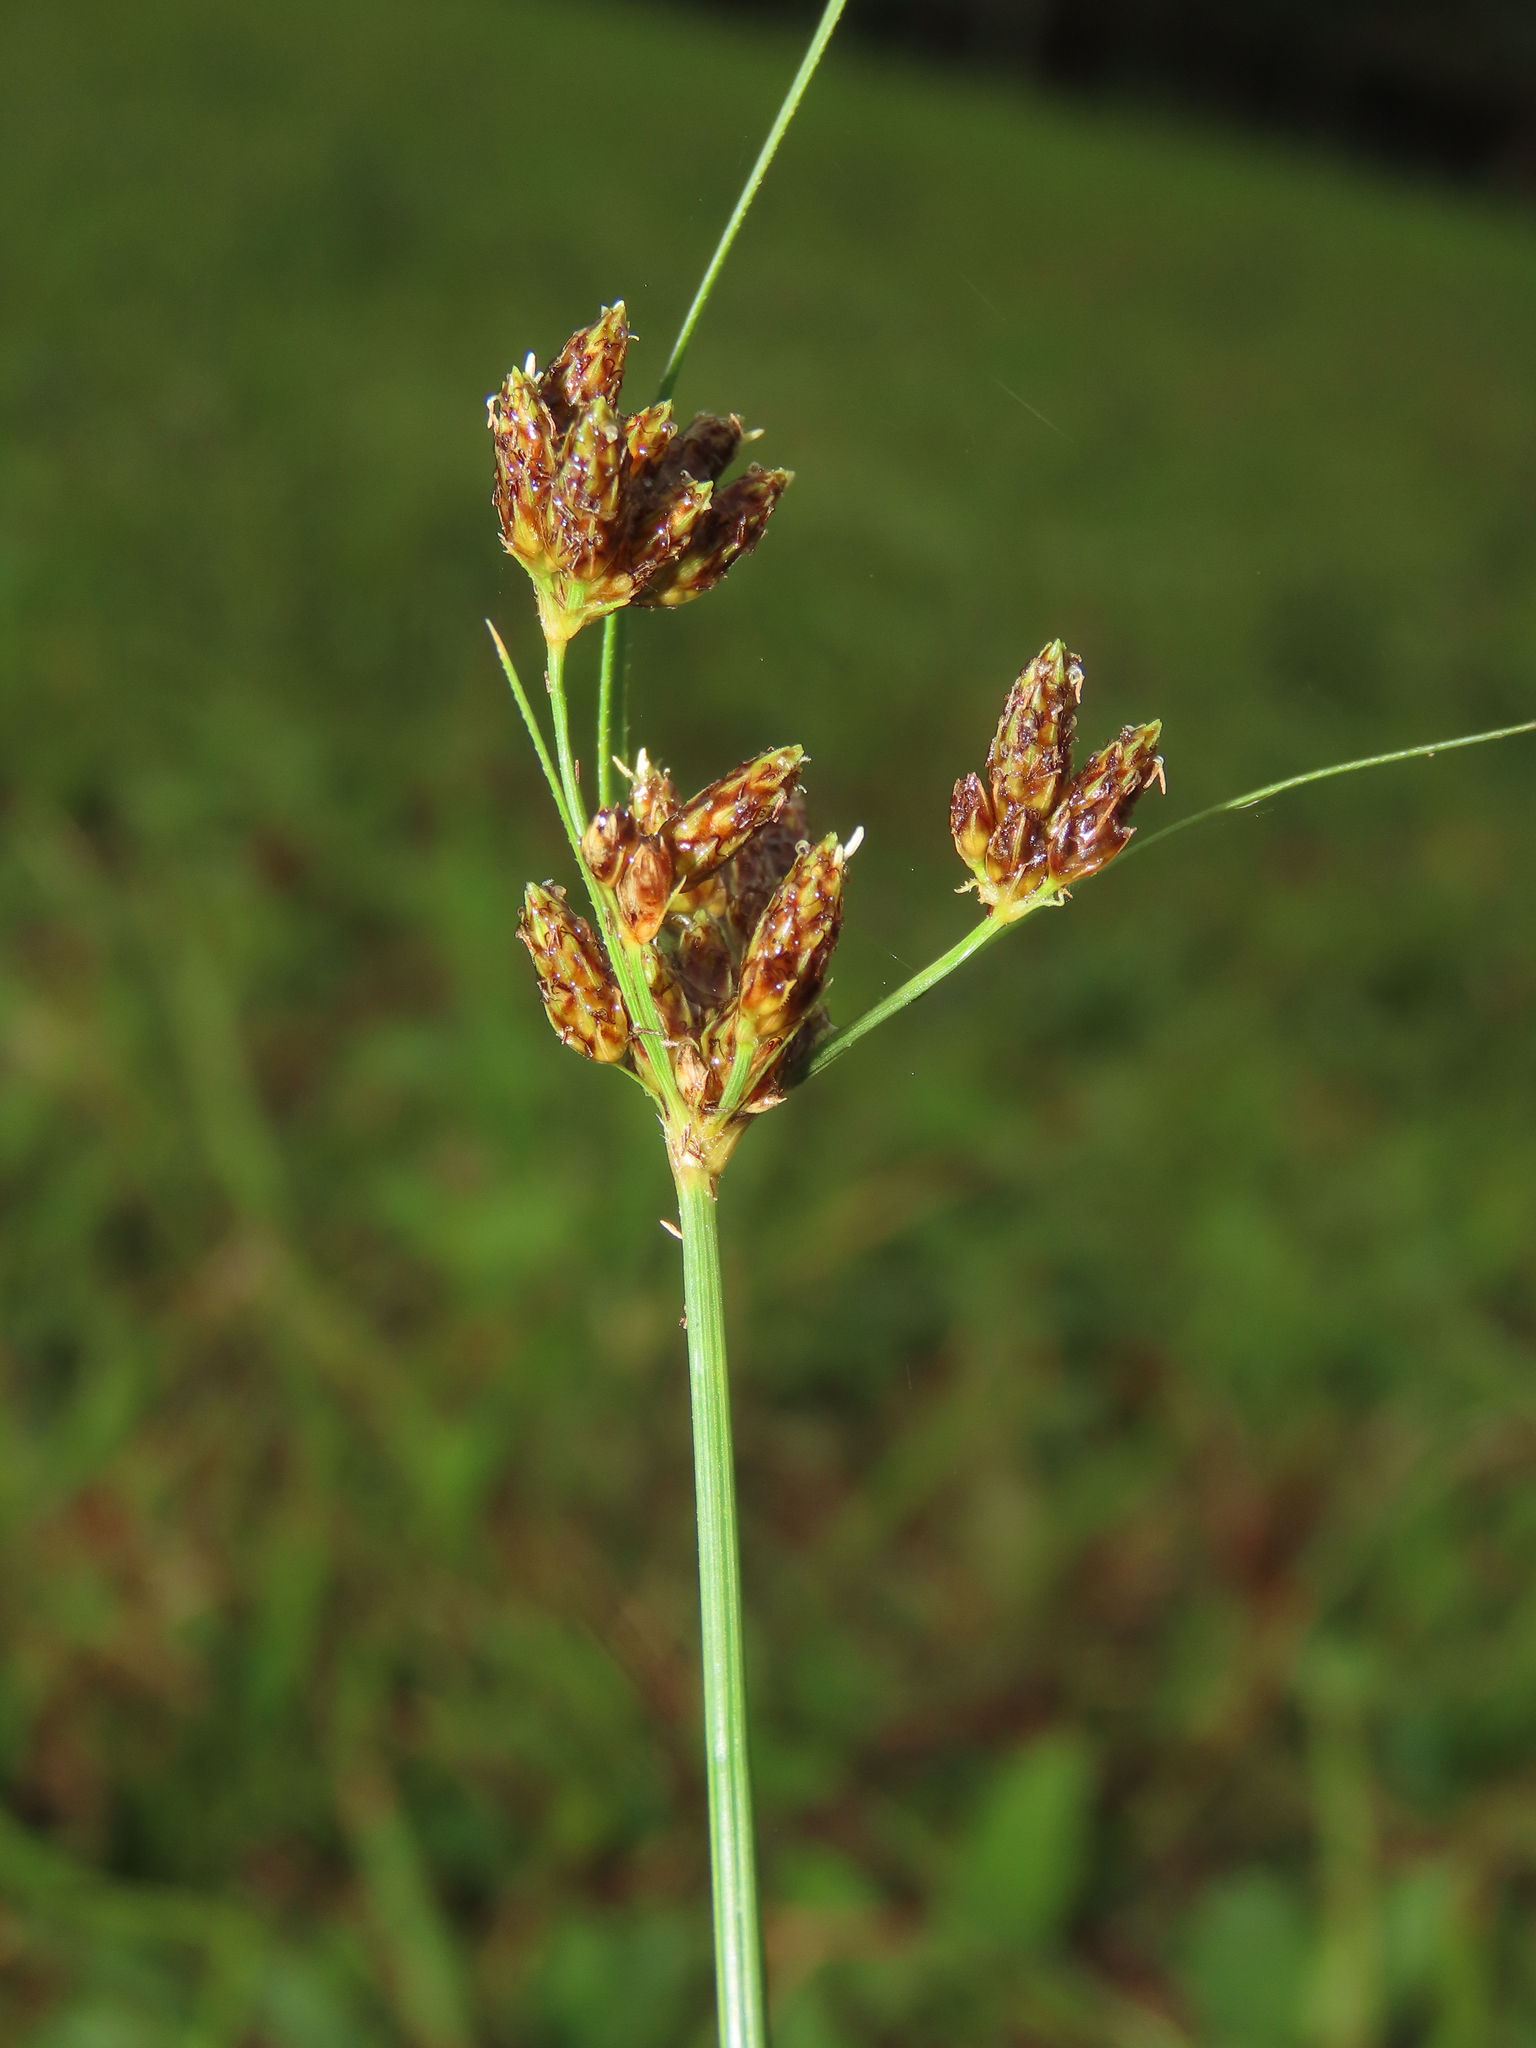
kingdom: Plantae
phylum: Tracheophyta
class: Liliopsida
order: Poales
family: Cyperaceae
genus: Fimbristylis
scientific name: Fimbristylis dichotoma
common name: Forked fimbry
